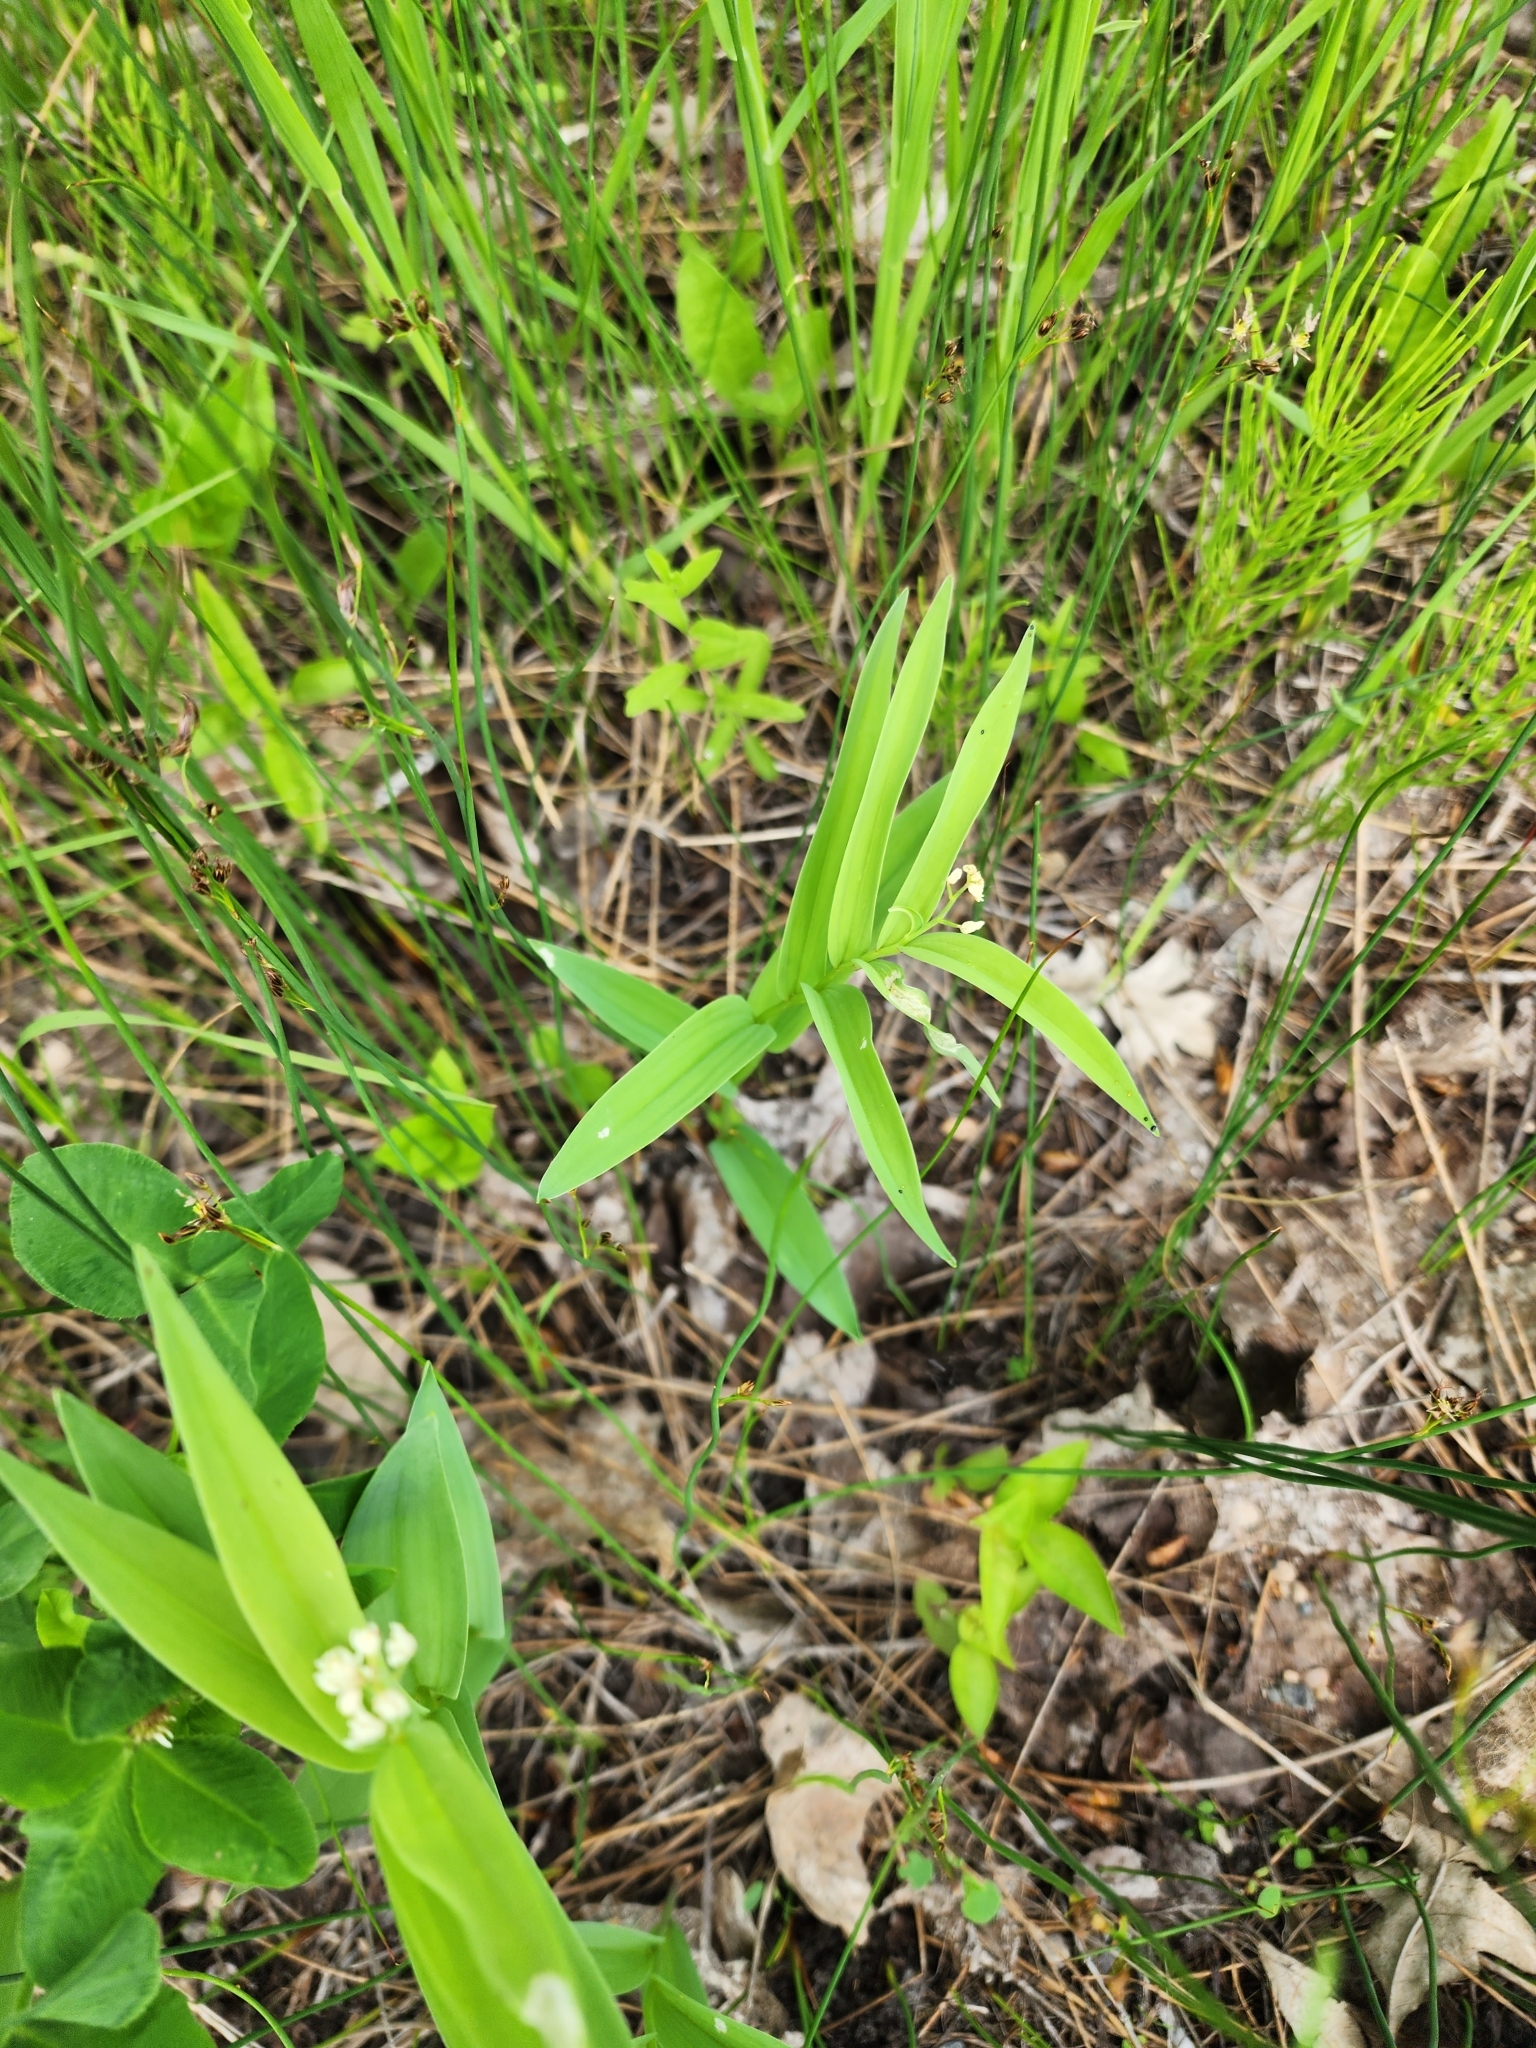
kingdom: Plantae
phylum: Tracheophyta
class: Liliopsida
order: Asparagales
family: Asparagaceae
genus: Maianthemum
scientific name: Maianthemum stellatum
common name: Little false solomon's seal
